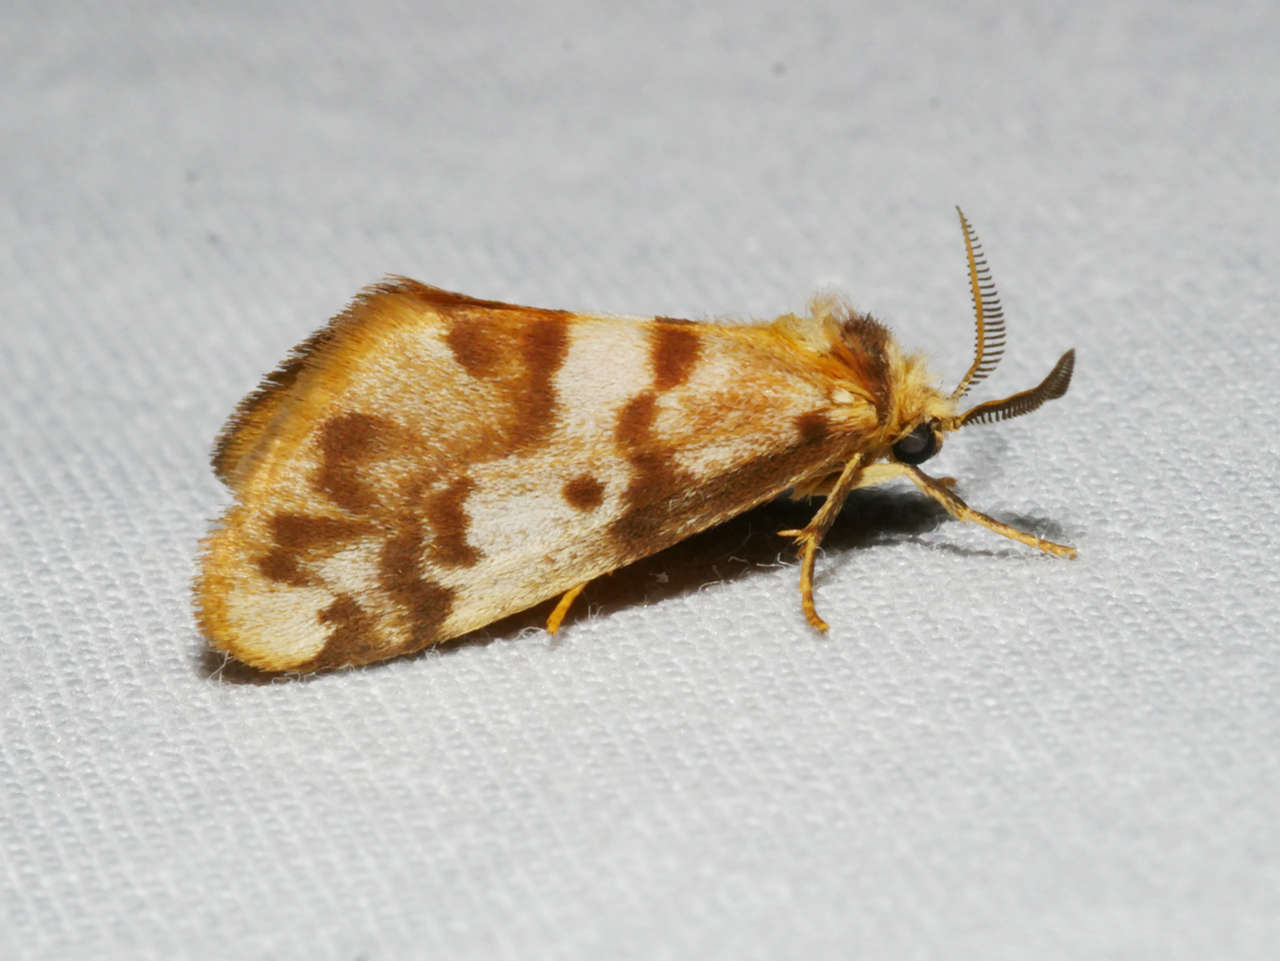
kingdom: Animalia
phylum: Arthropoda
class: Insecta
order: Lepidoptera
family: Erebidae
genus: Anestia
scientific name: Anestia
